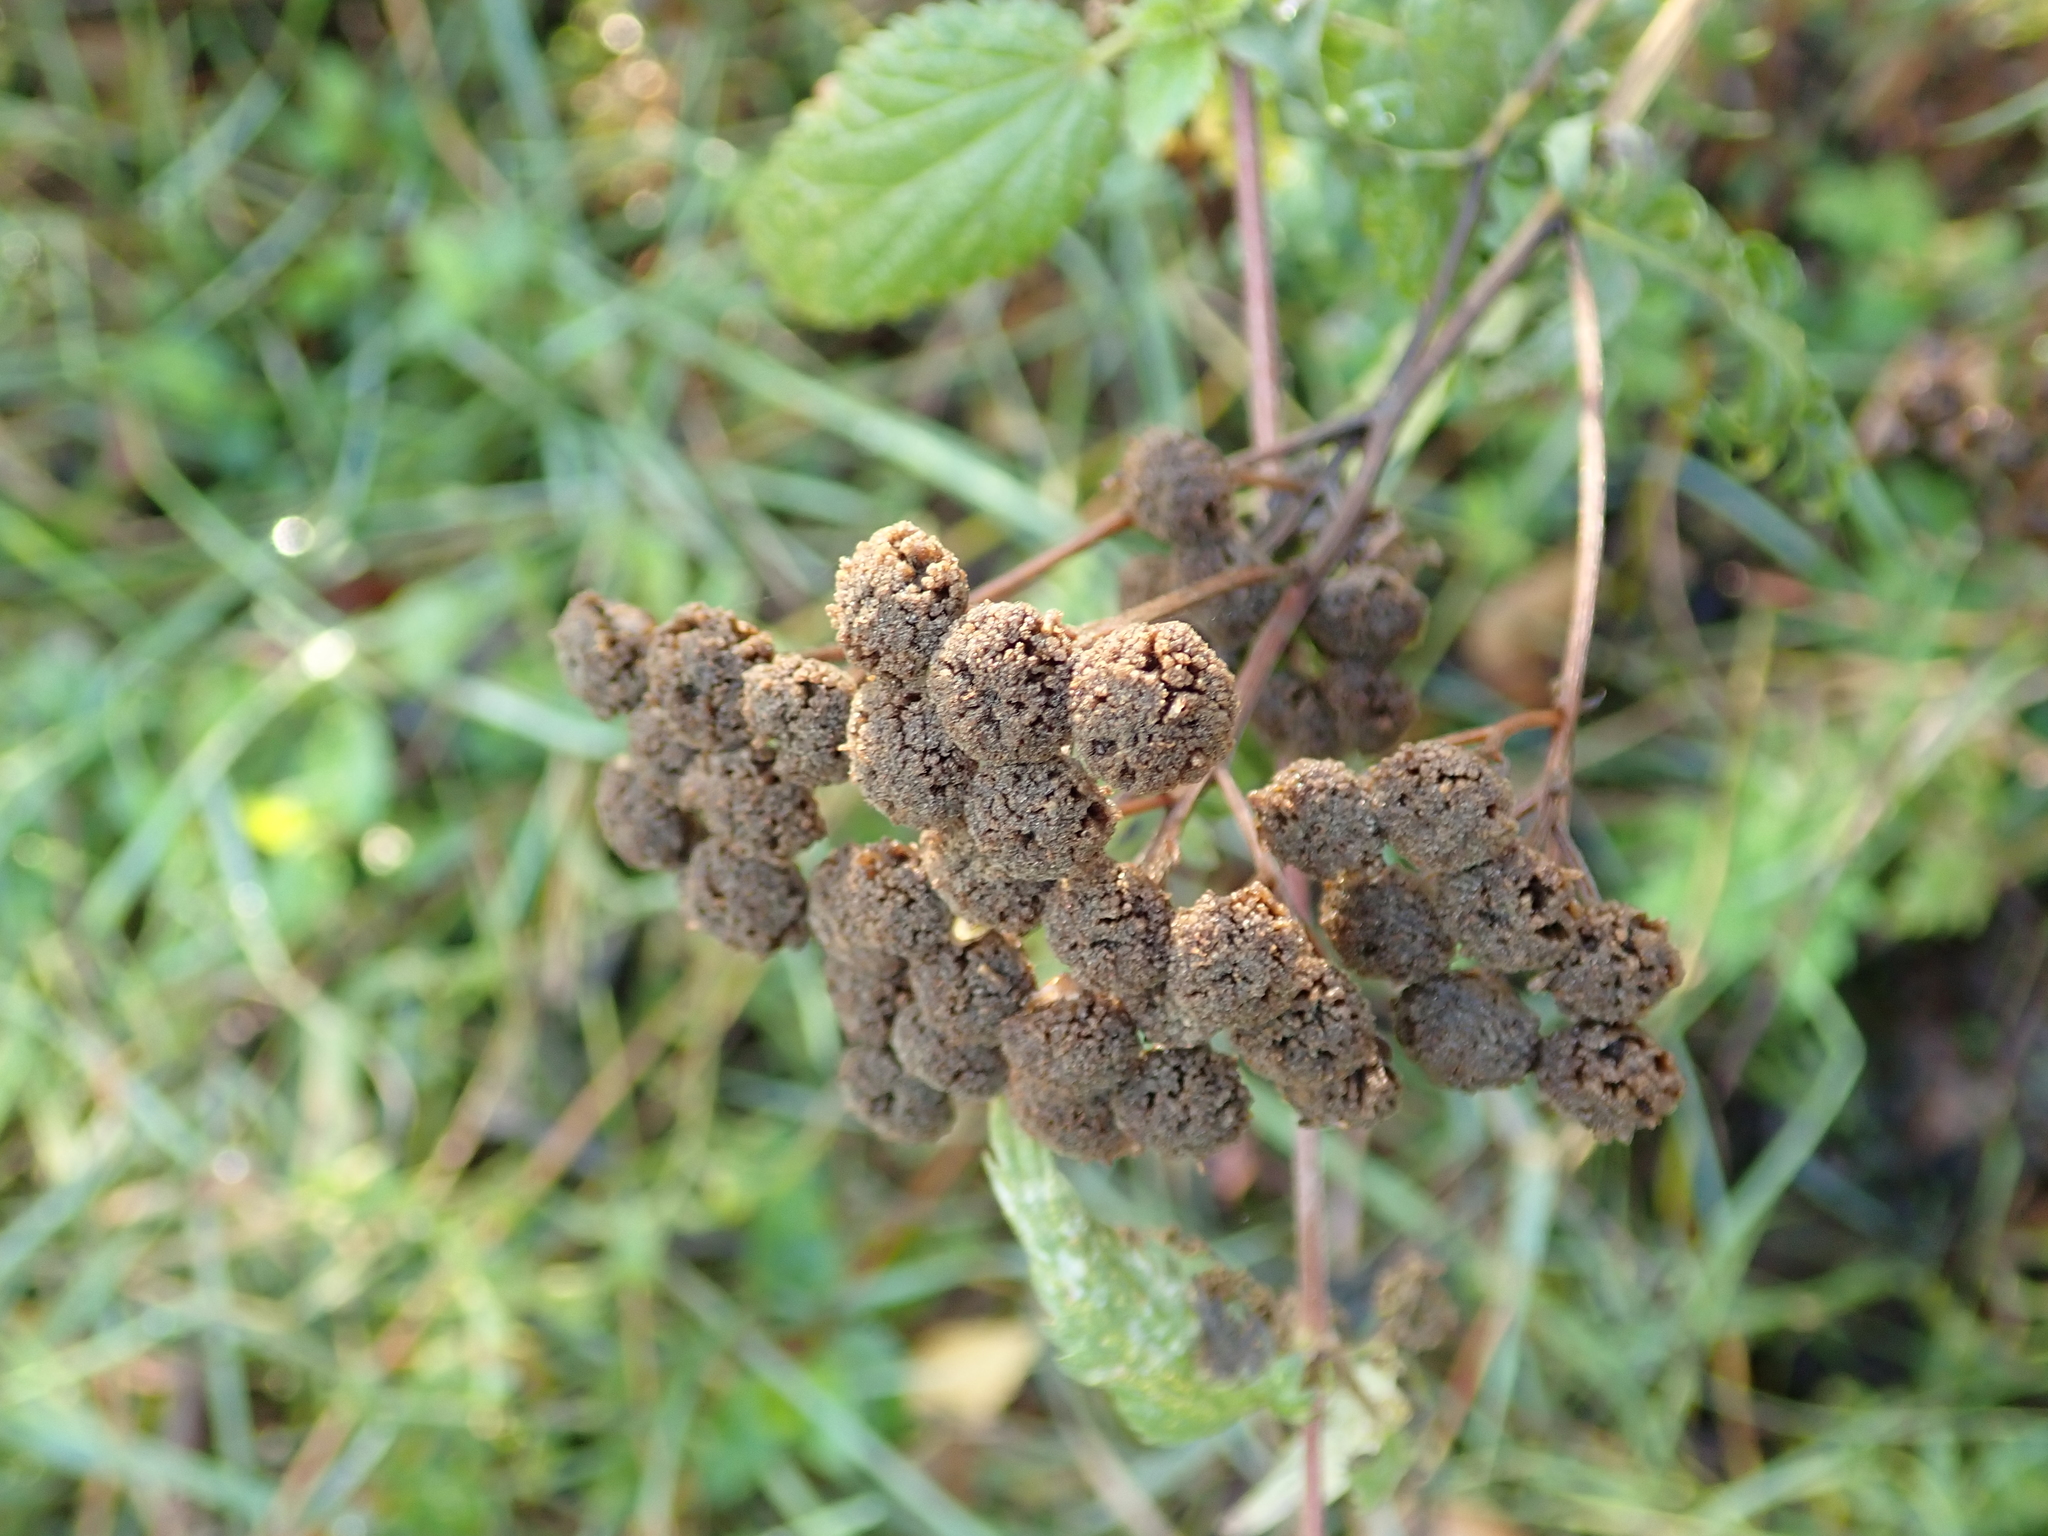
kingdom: Plantae
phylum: Tracheophyta
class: Magnoliopsida
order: Asterales
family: Asteraceae
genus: Tanacetum
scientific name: Tanacetum vulgare
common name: Common tansy
